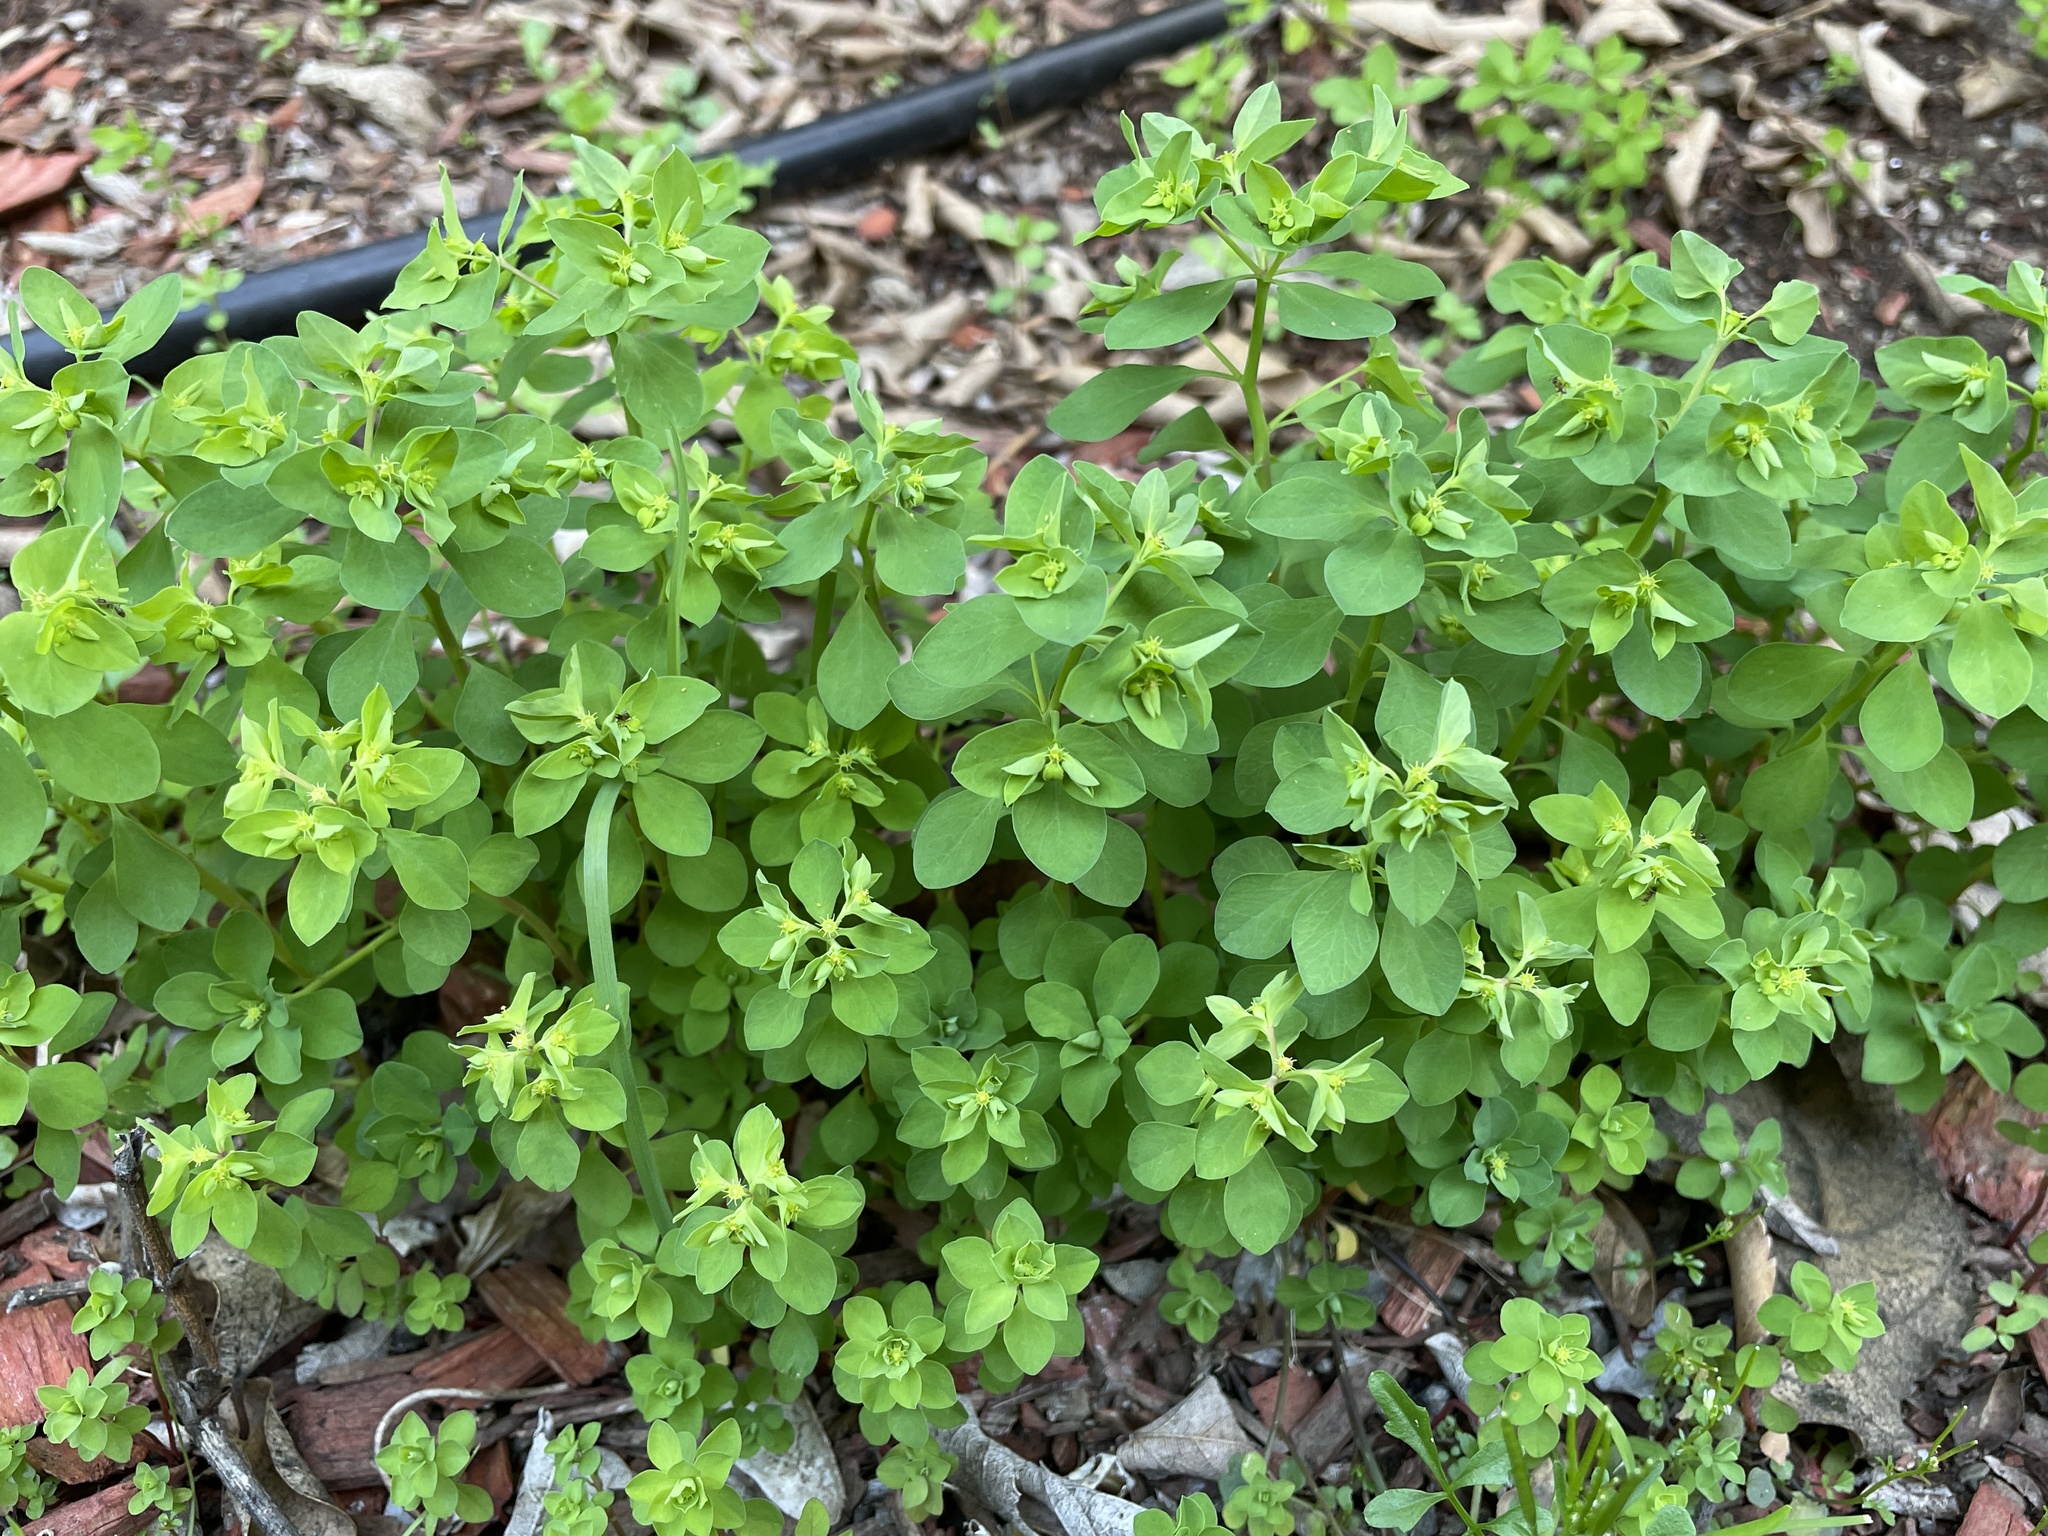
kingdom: Plantae
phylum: Tracheophyta
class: Magnoliopsida
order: Malpighiales
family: Euphorbiaceae
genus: Euphorbia
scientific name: Euphorbia peplus
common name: Petty spurge
